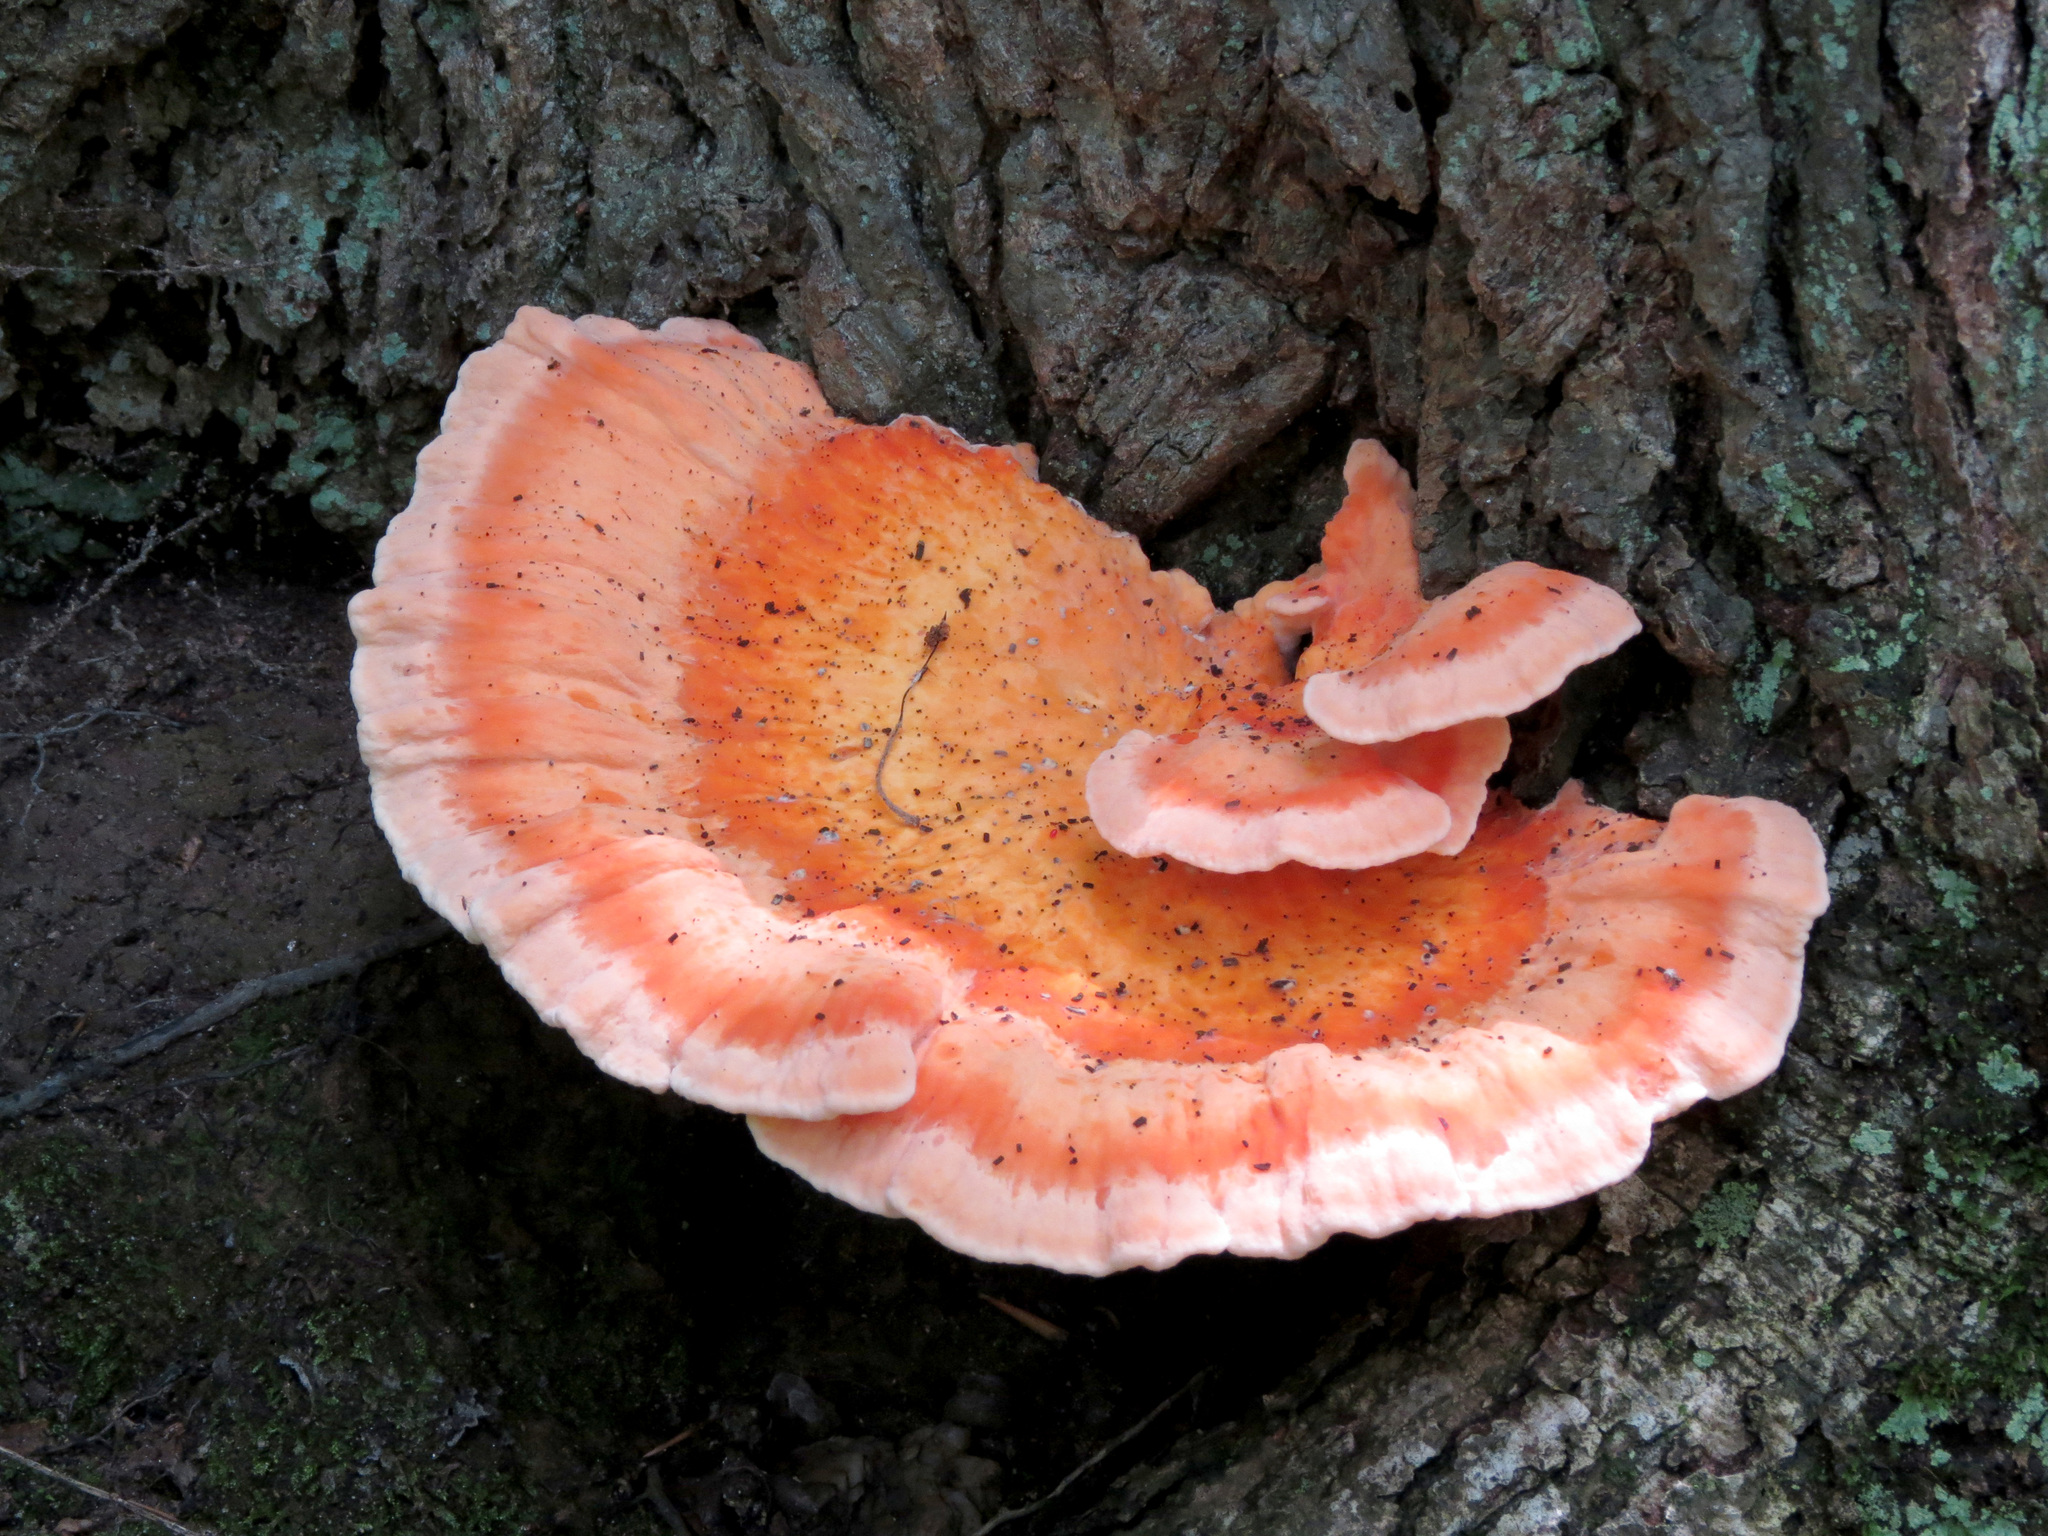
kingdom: Fungi
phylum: Basidiomycota
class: Agaricomycetes
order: Polyporales
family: Laetiporaceae
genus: Laetiporus
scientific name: Laetiporus sulphureus
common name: Chicken of the woods
